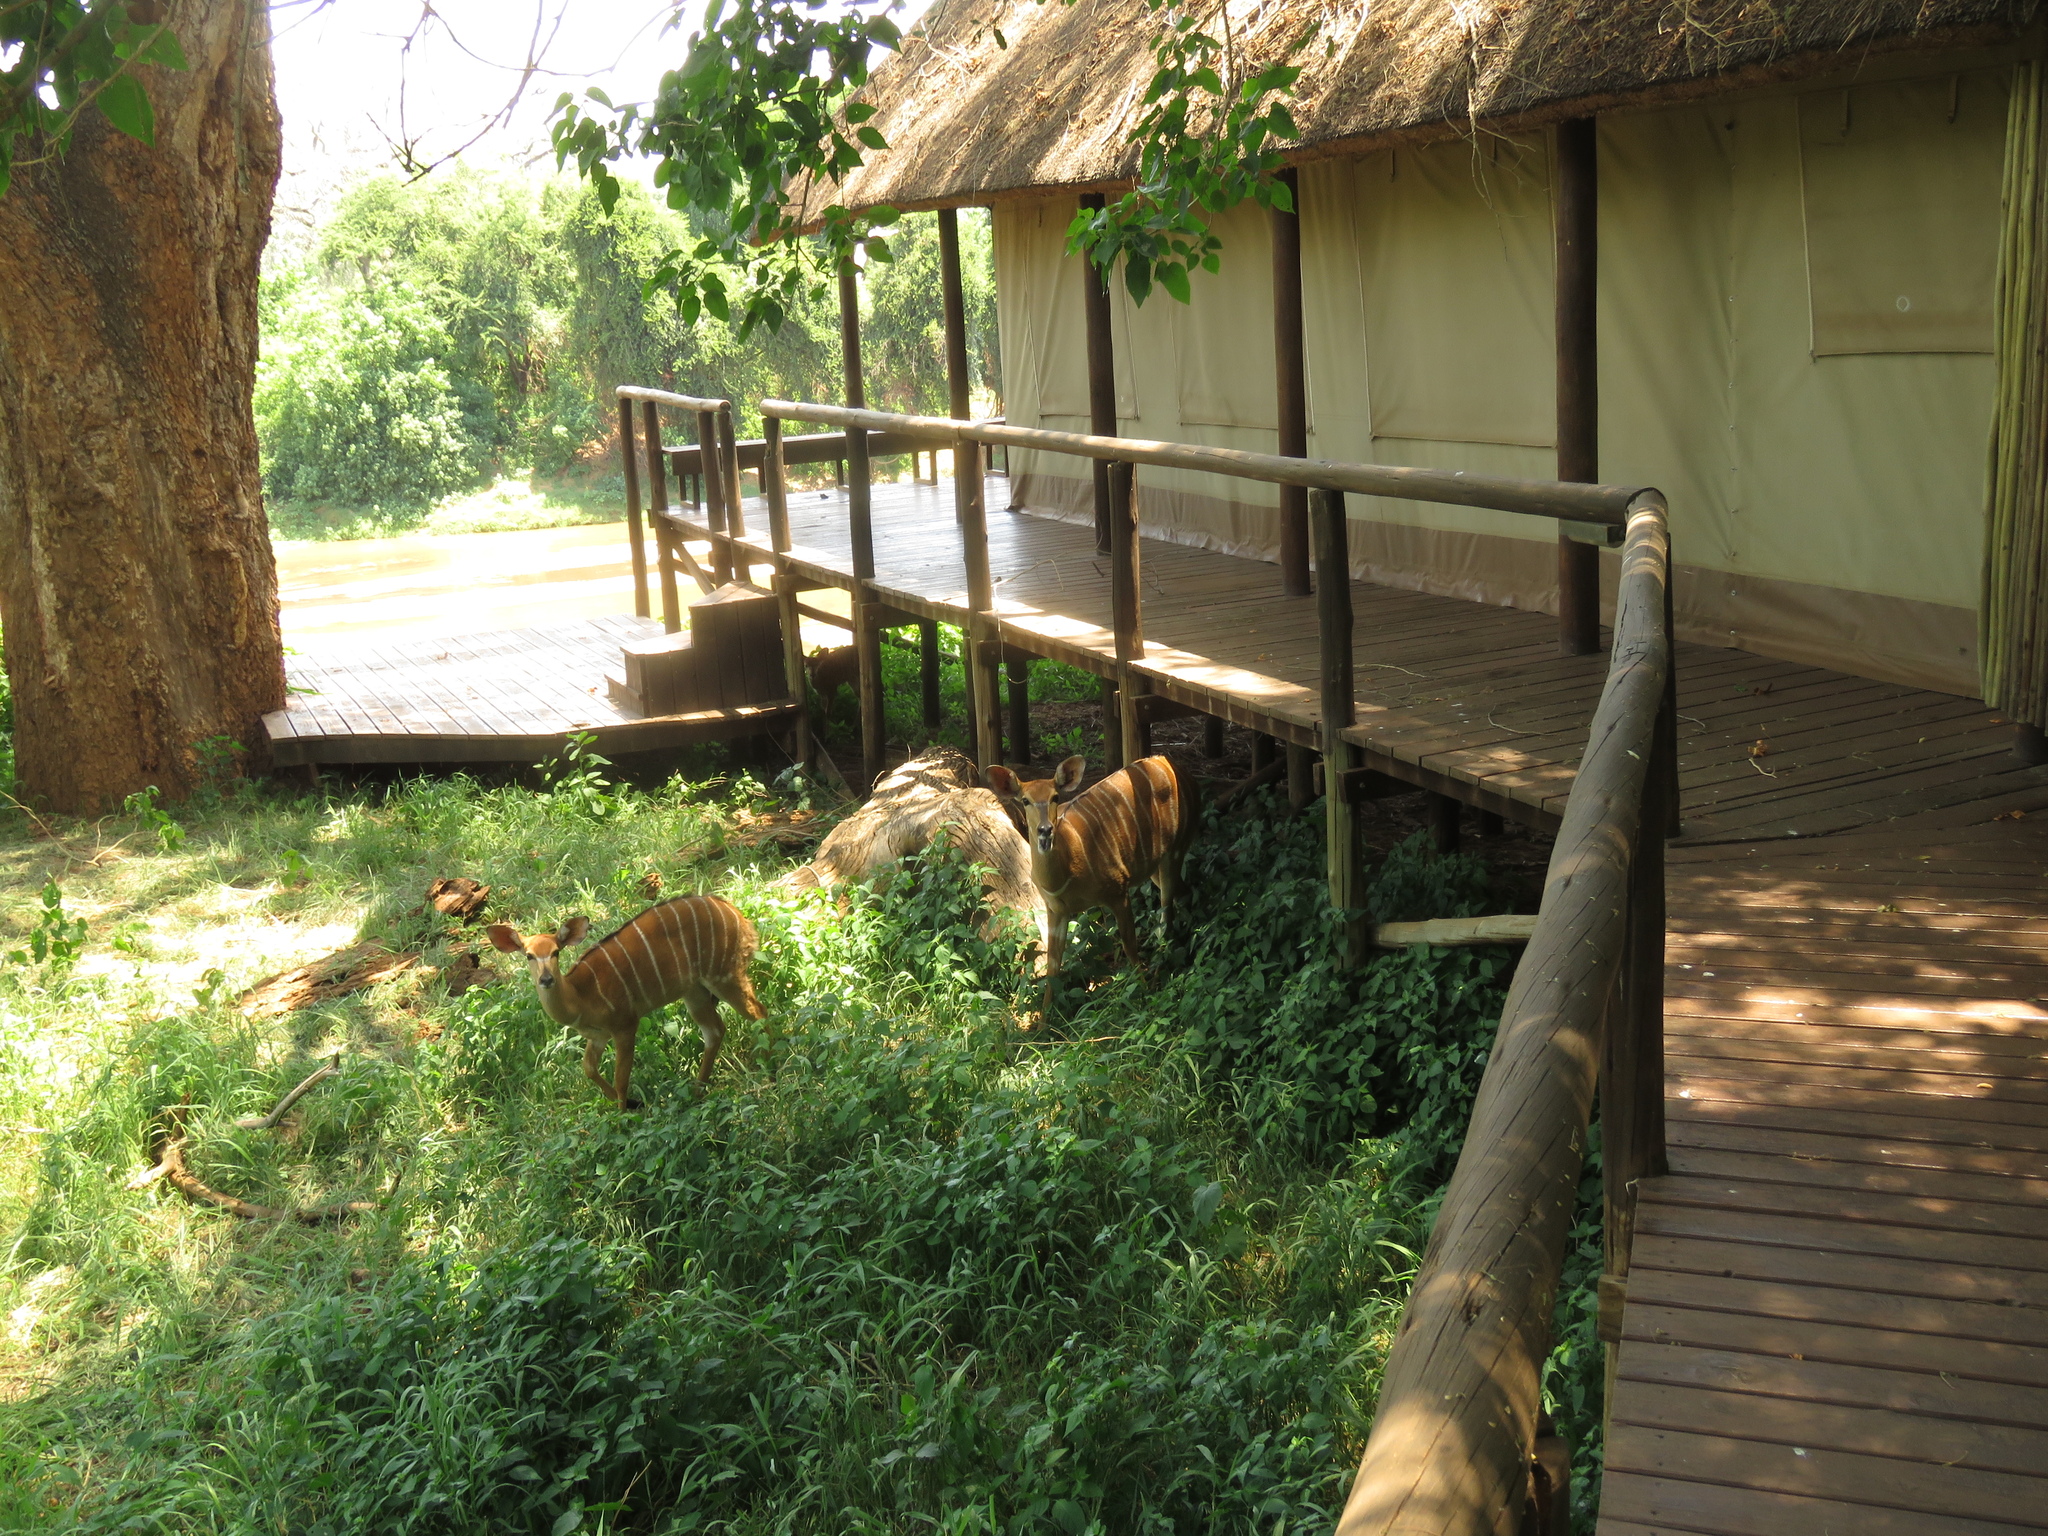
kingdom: Animalia
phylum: Chordata
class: Mammalia
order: Artiodactyla
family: Bovidae
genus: Tragelaphus
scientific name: Tragelaphus angasii
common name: Nyala
